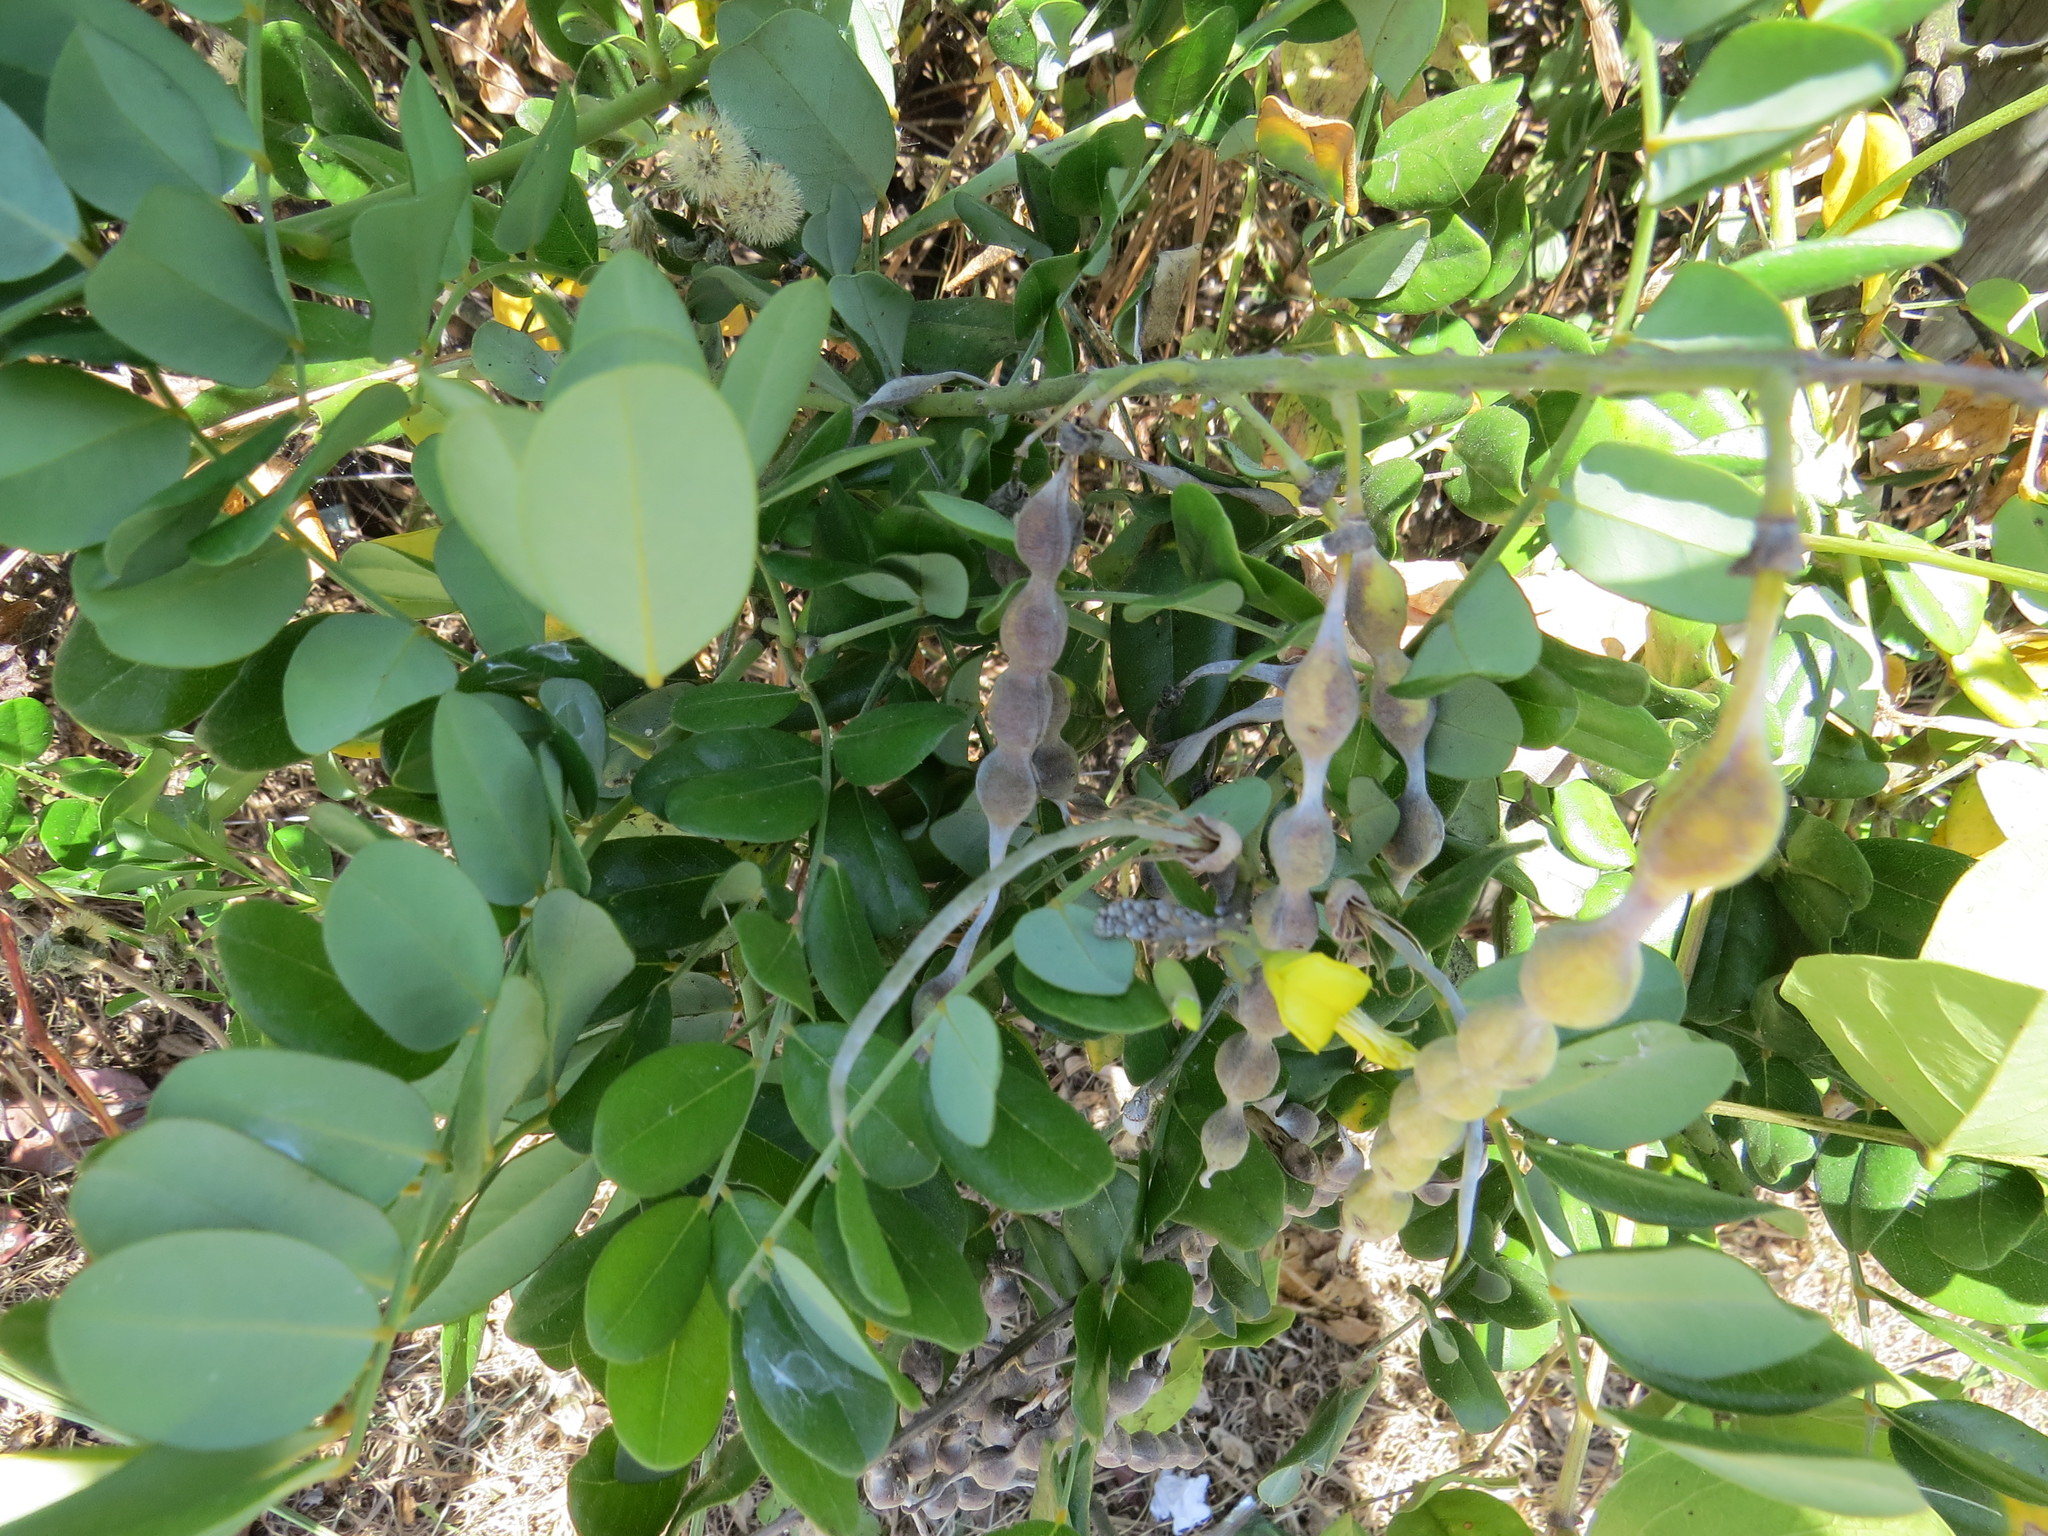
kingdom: Plantae
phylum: Tracheophyta
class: Magnoliopsida
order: Fabales
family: Fabaceae
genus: Sophora
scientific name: Sophora tomentosa
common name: Yellow necklacepod
